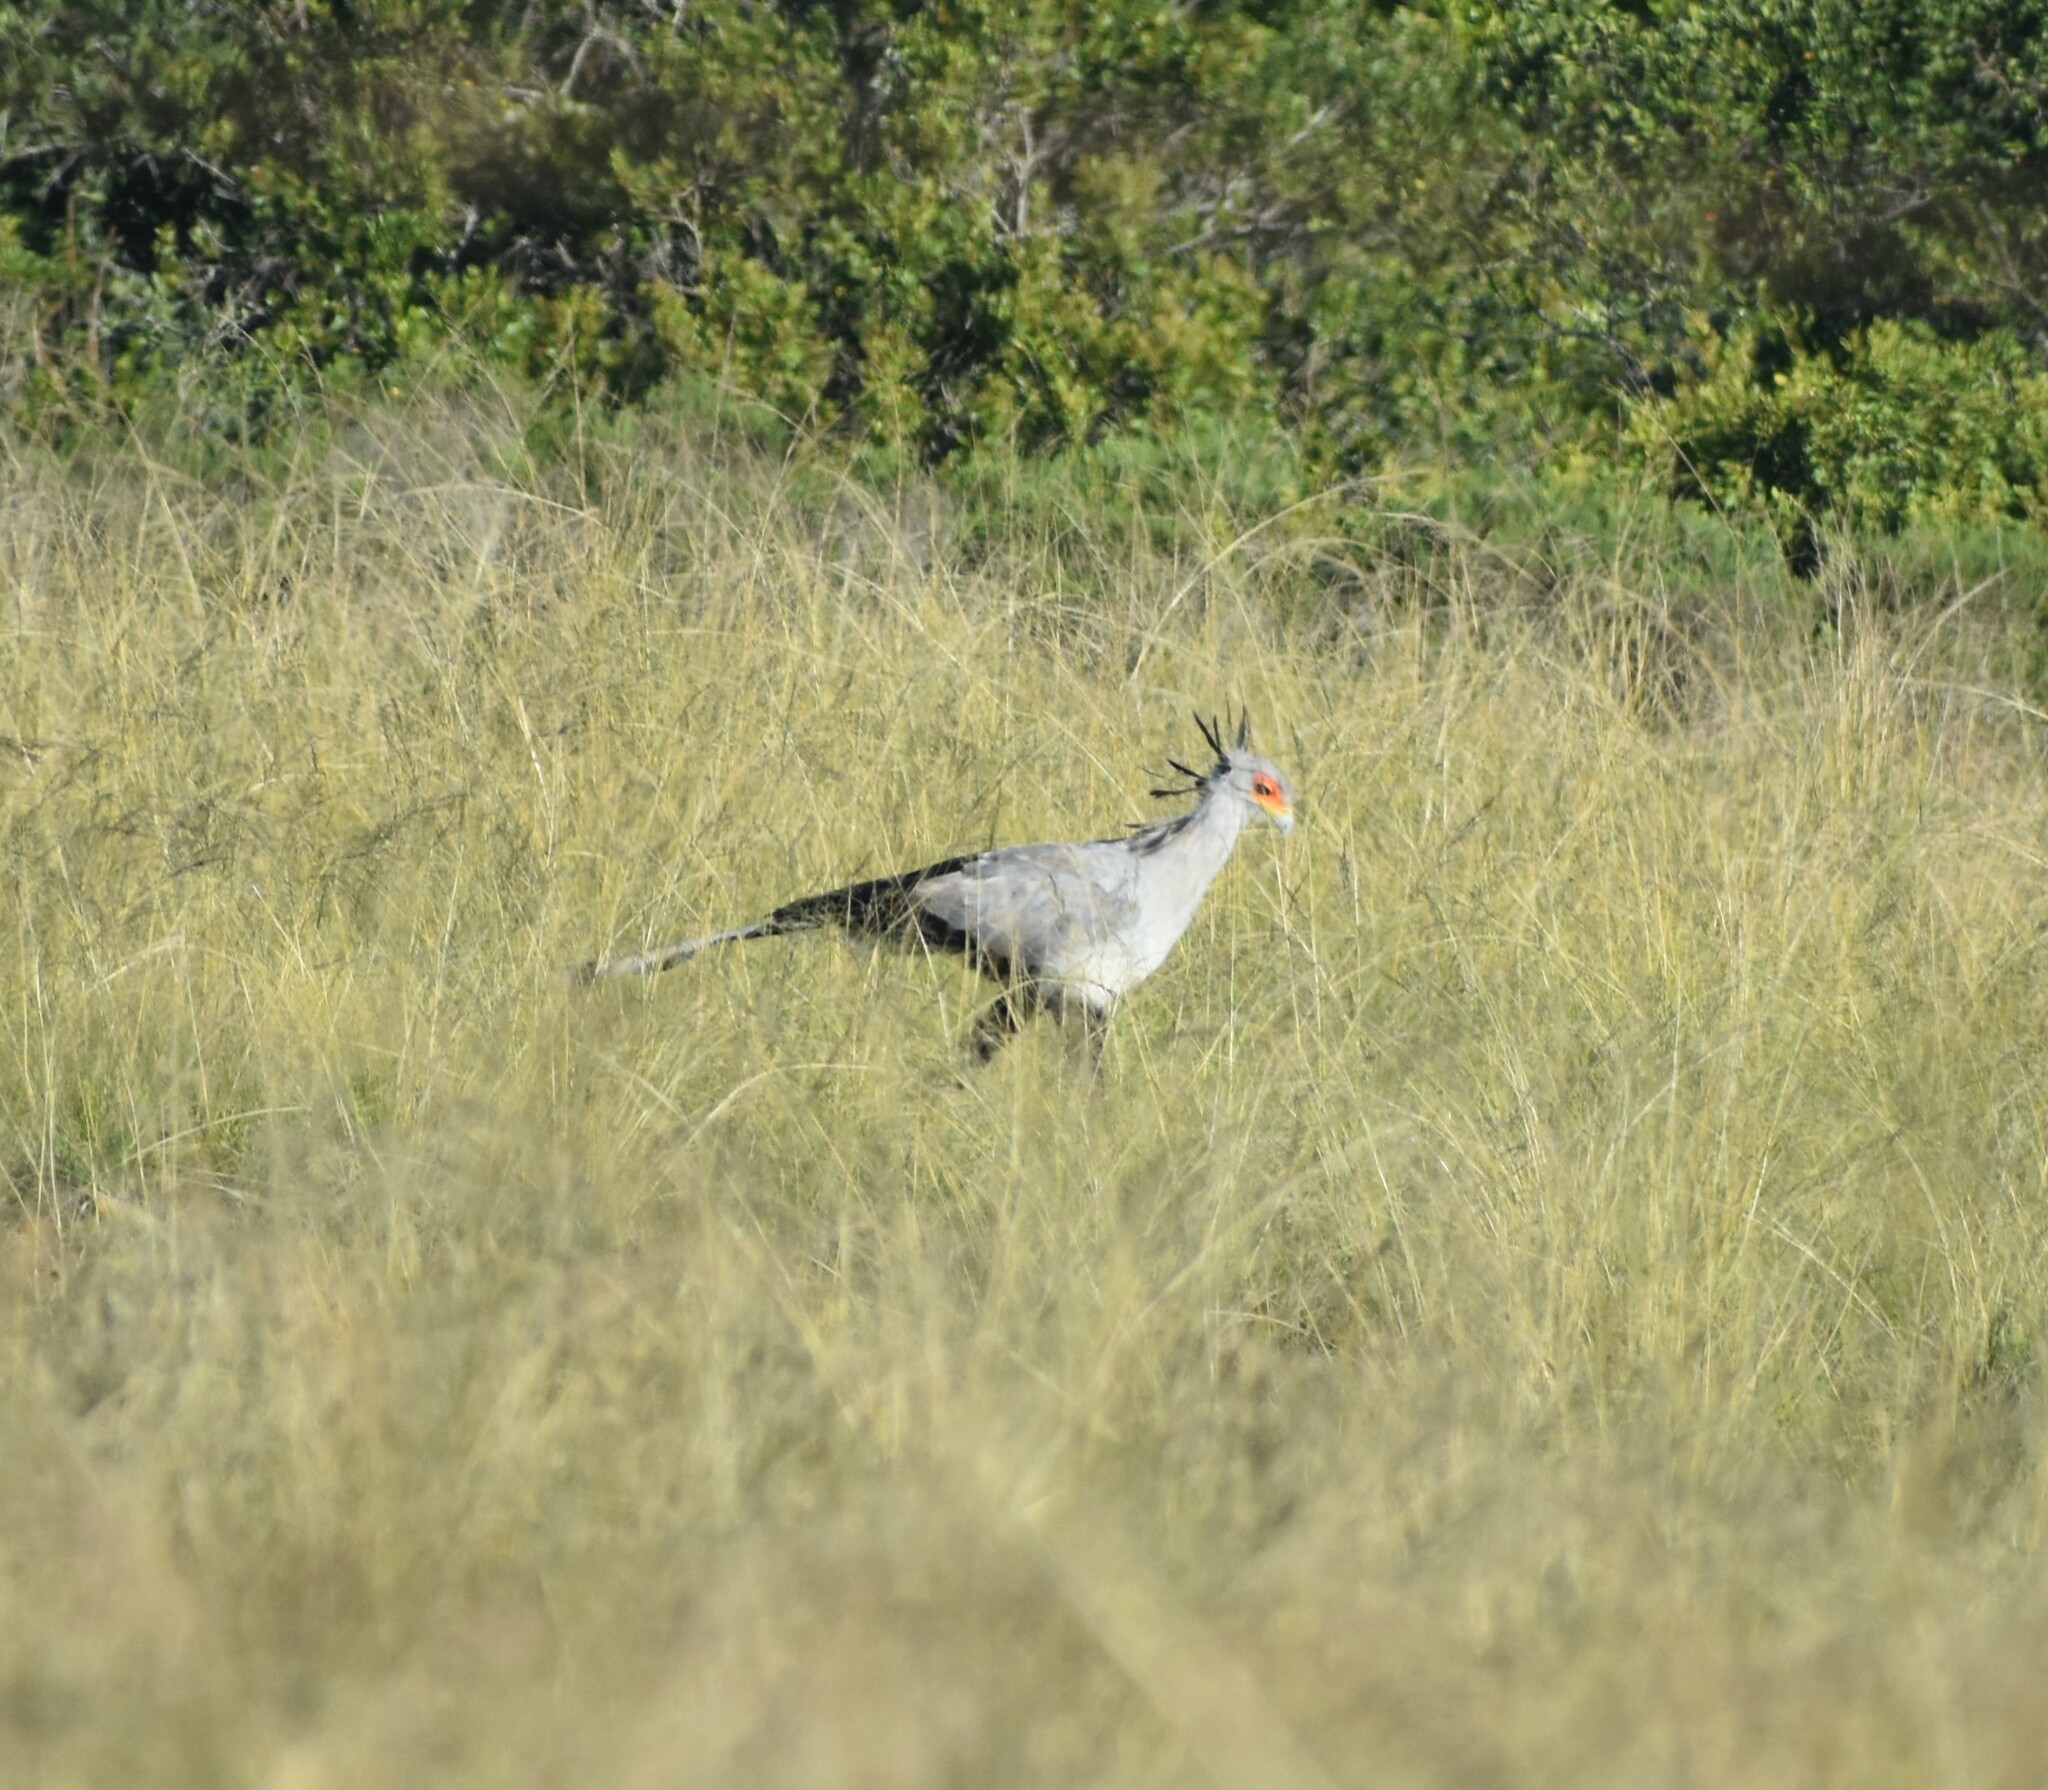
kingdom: Animalia
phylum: Chordata
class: Aves
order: Accipitriformes
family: Sagittariidae
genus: Sagittarius
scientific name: Sagittarius serpentarius
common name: Secretarybird
